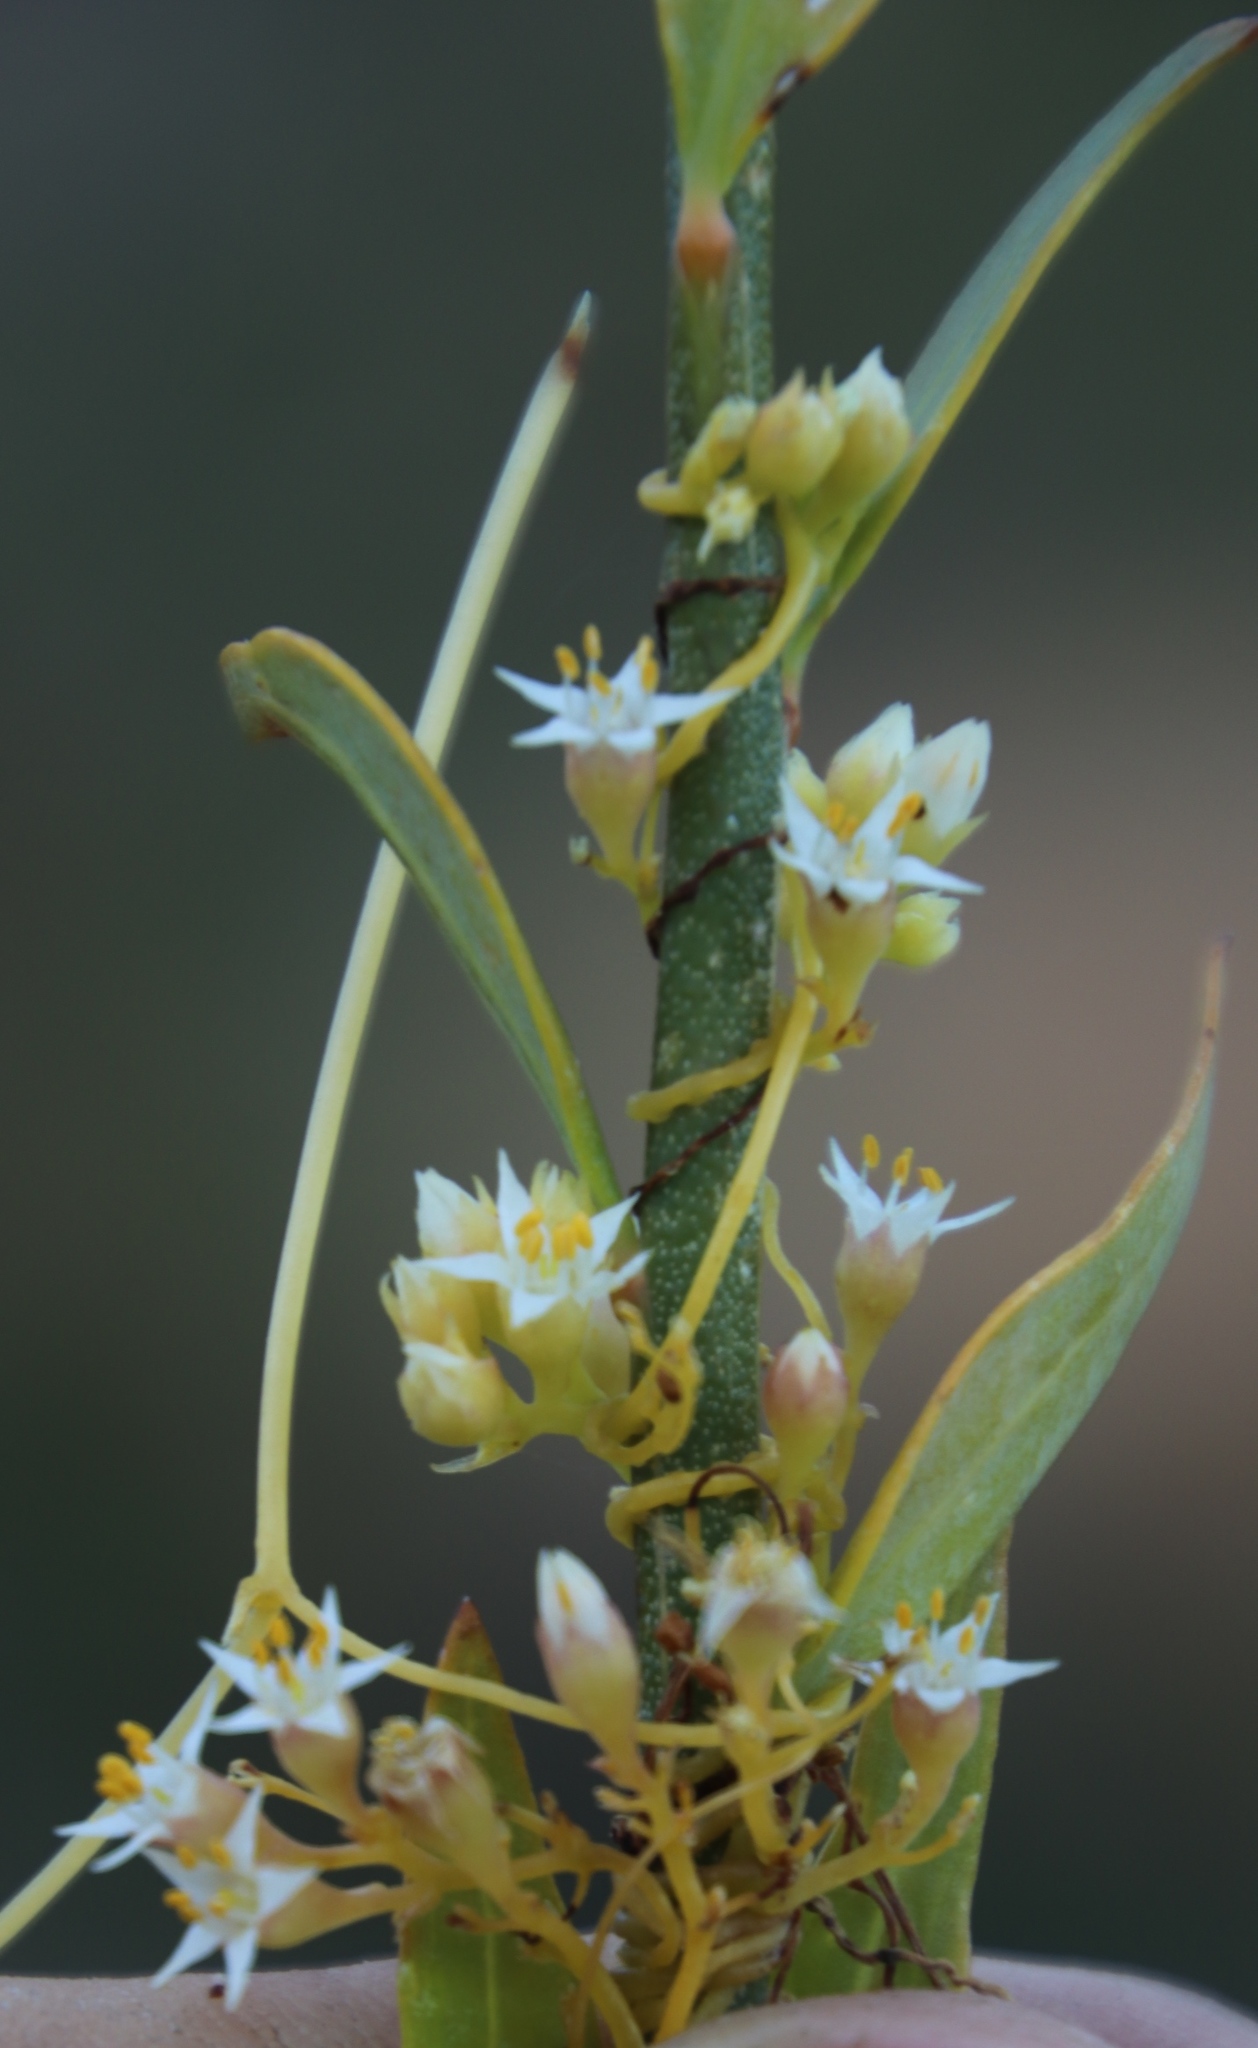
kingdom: Plantae
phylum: Tracheophyta
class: Magnoliopsida
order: Solanales
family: Convolvulaceae
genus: Cuscuta
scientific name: Cuscuta nitida
